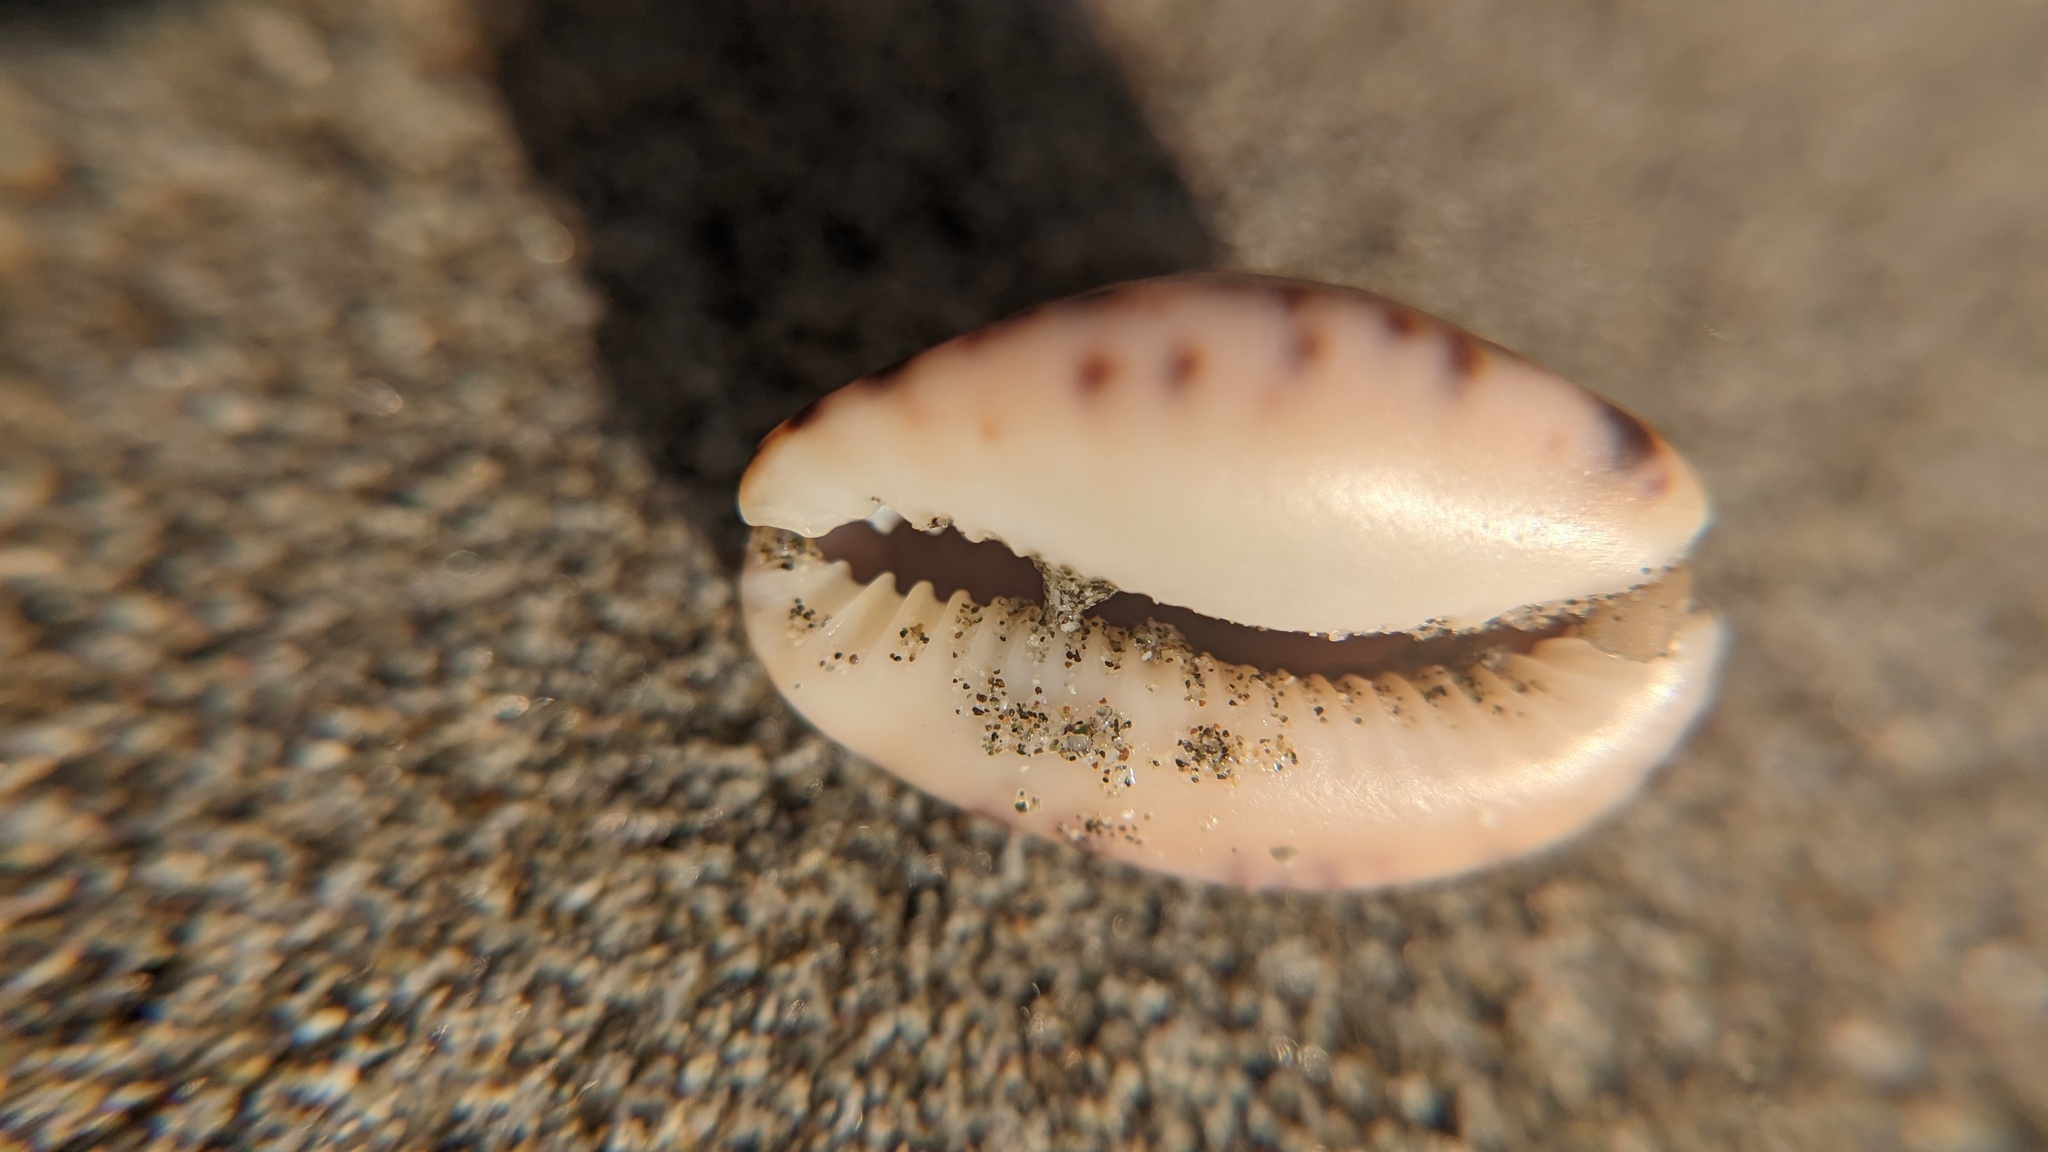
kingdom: Animalia
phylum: Mollusca
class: Gastropoda
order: Littorinimorpha
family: Cypraeidae
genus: Pseudozonaria
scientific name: Pseudozonaria arabicula
